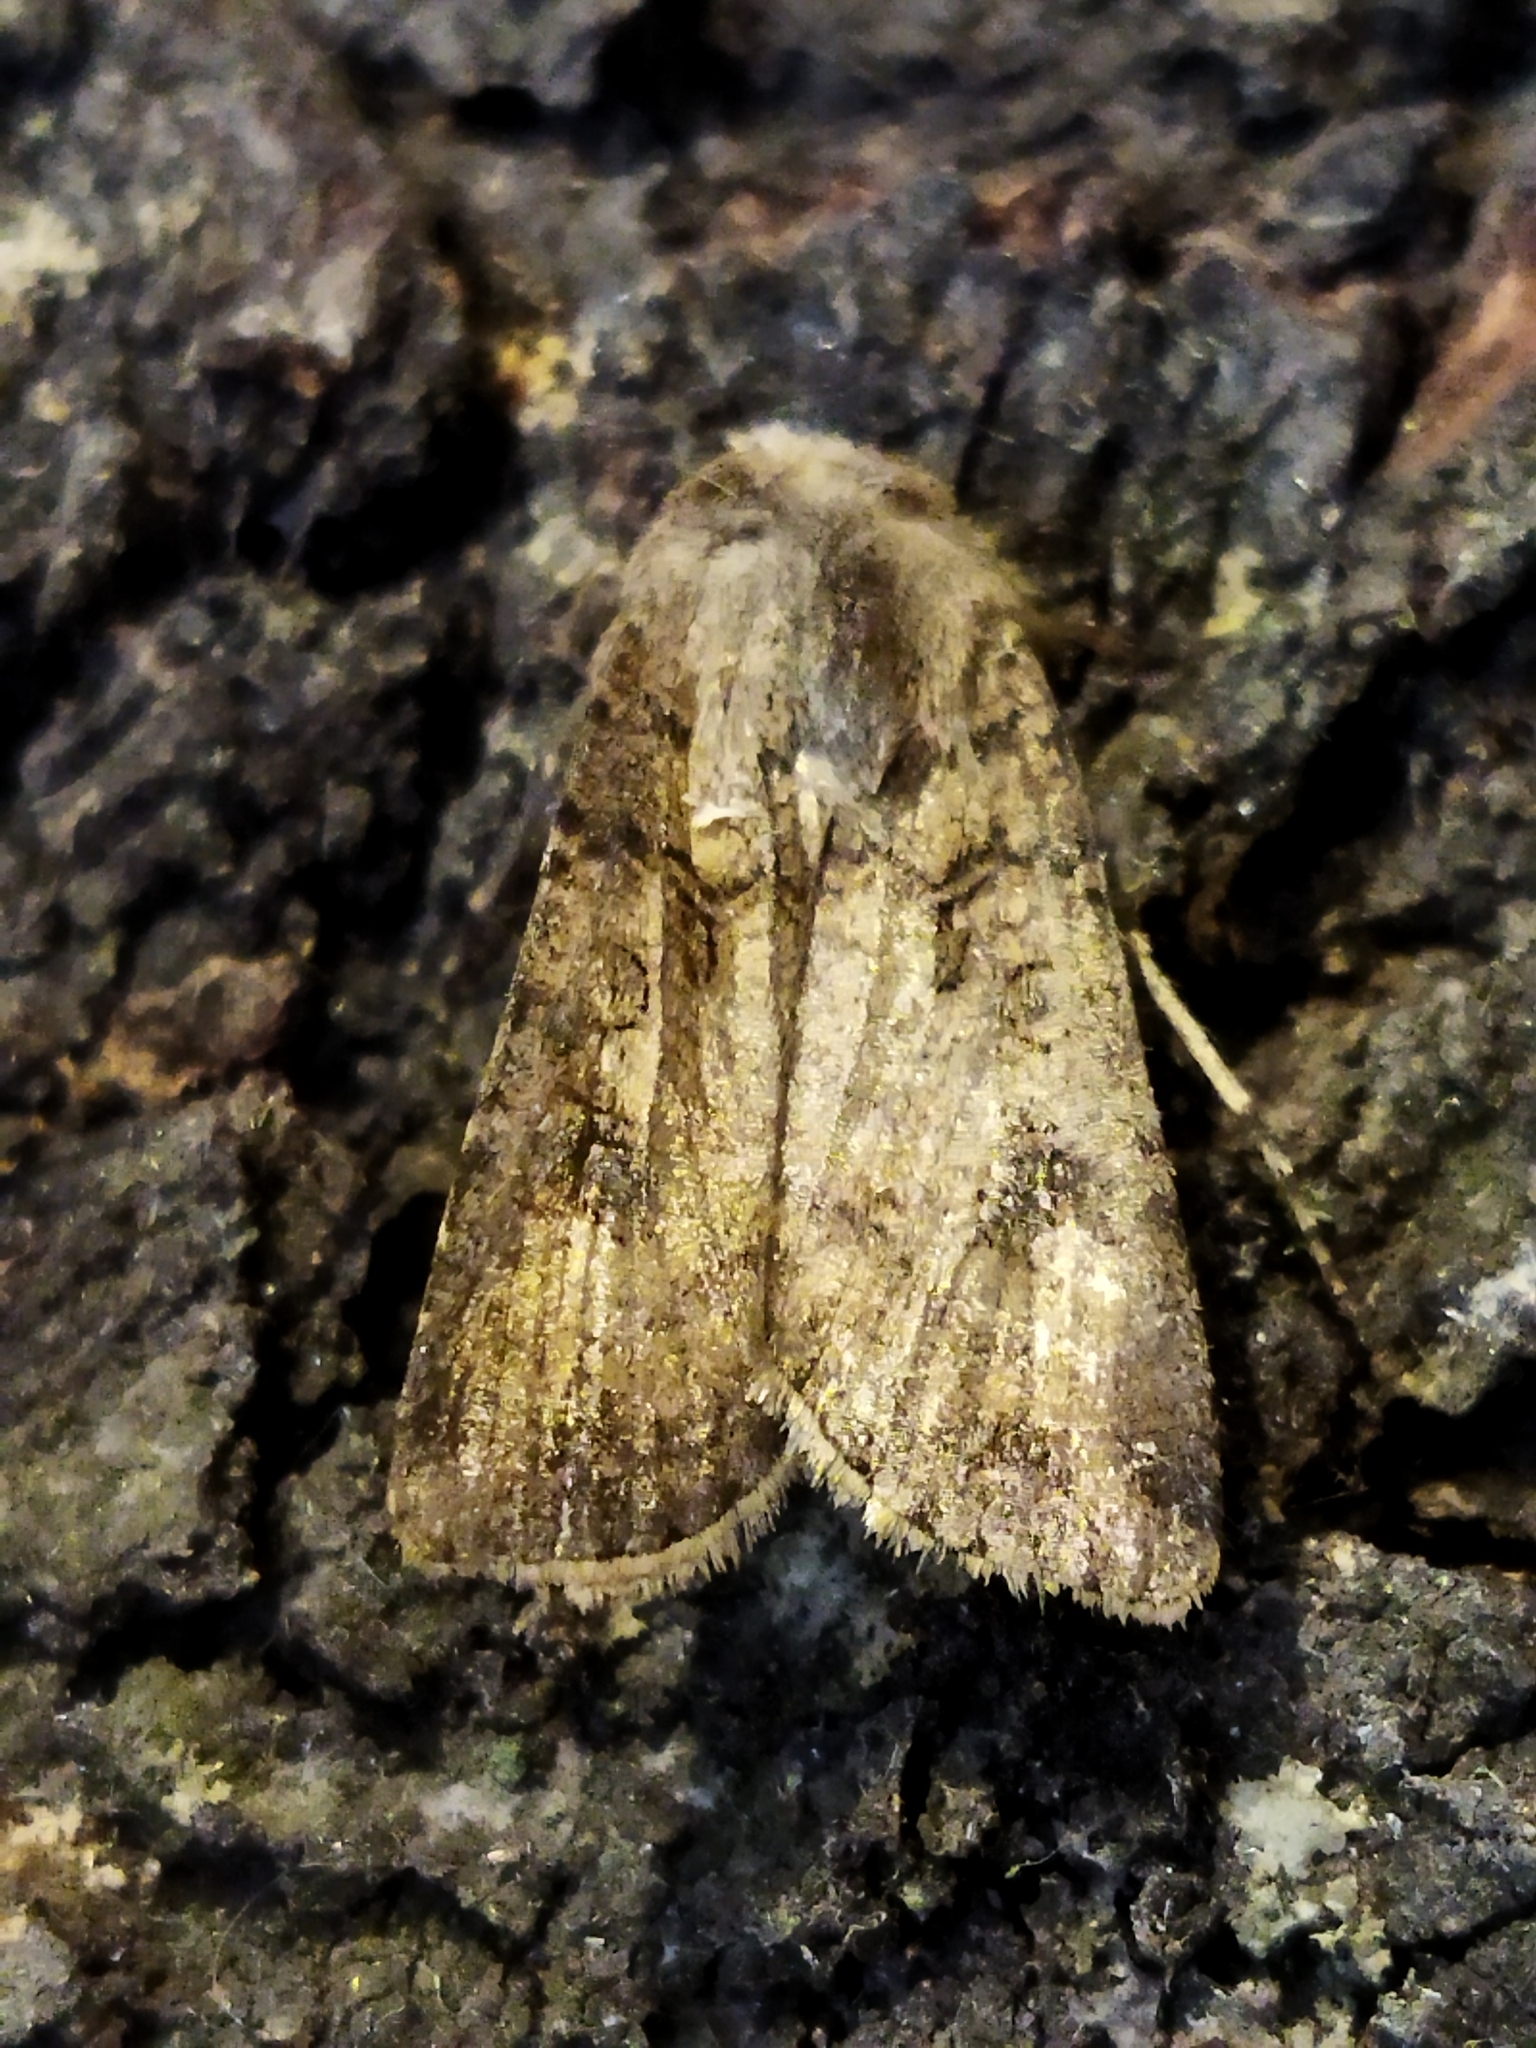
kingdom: Animalia
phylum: Arthropoda
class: Insecta
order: Lepidoptera
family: Noctuidae
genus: Agrotis
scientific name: Agrotis segetum
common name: Turnip moth
